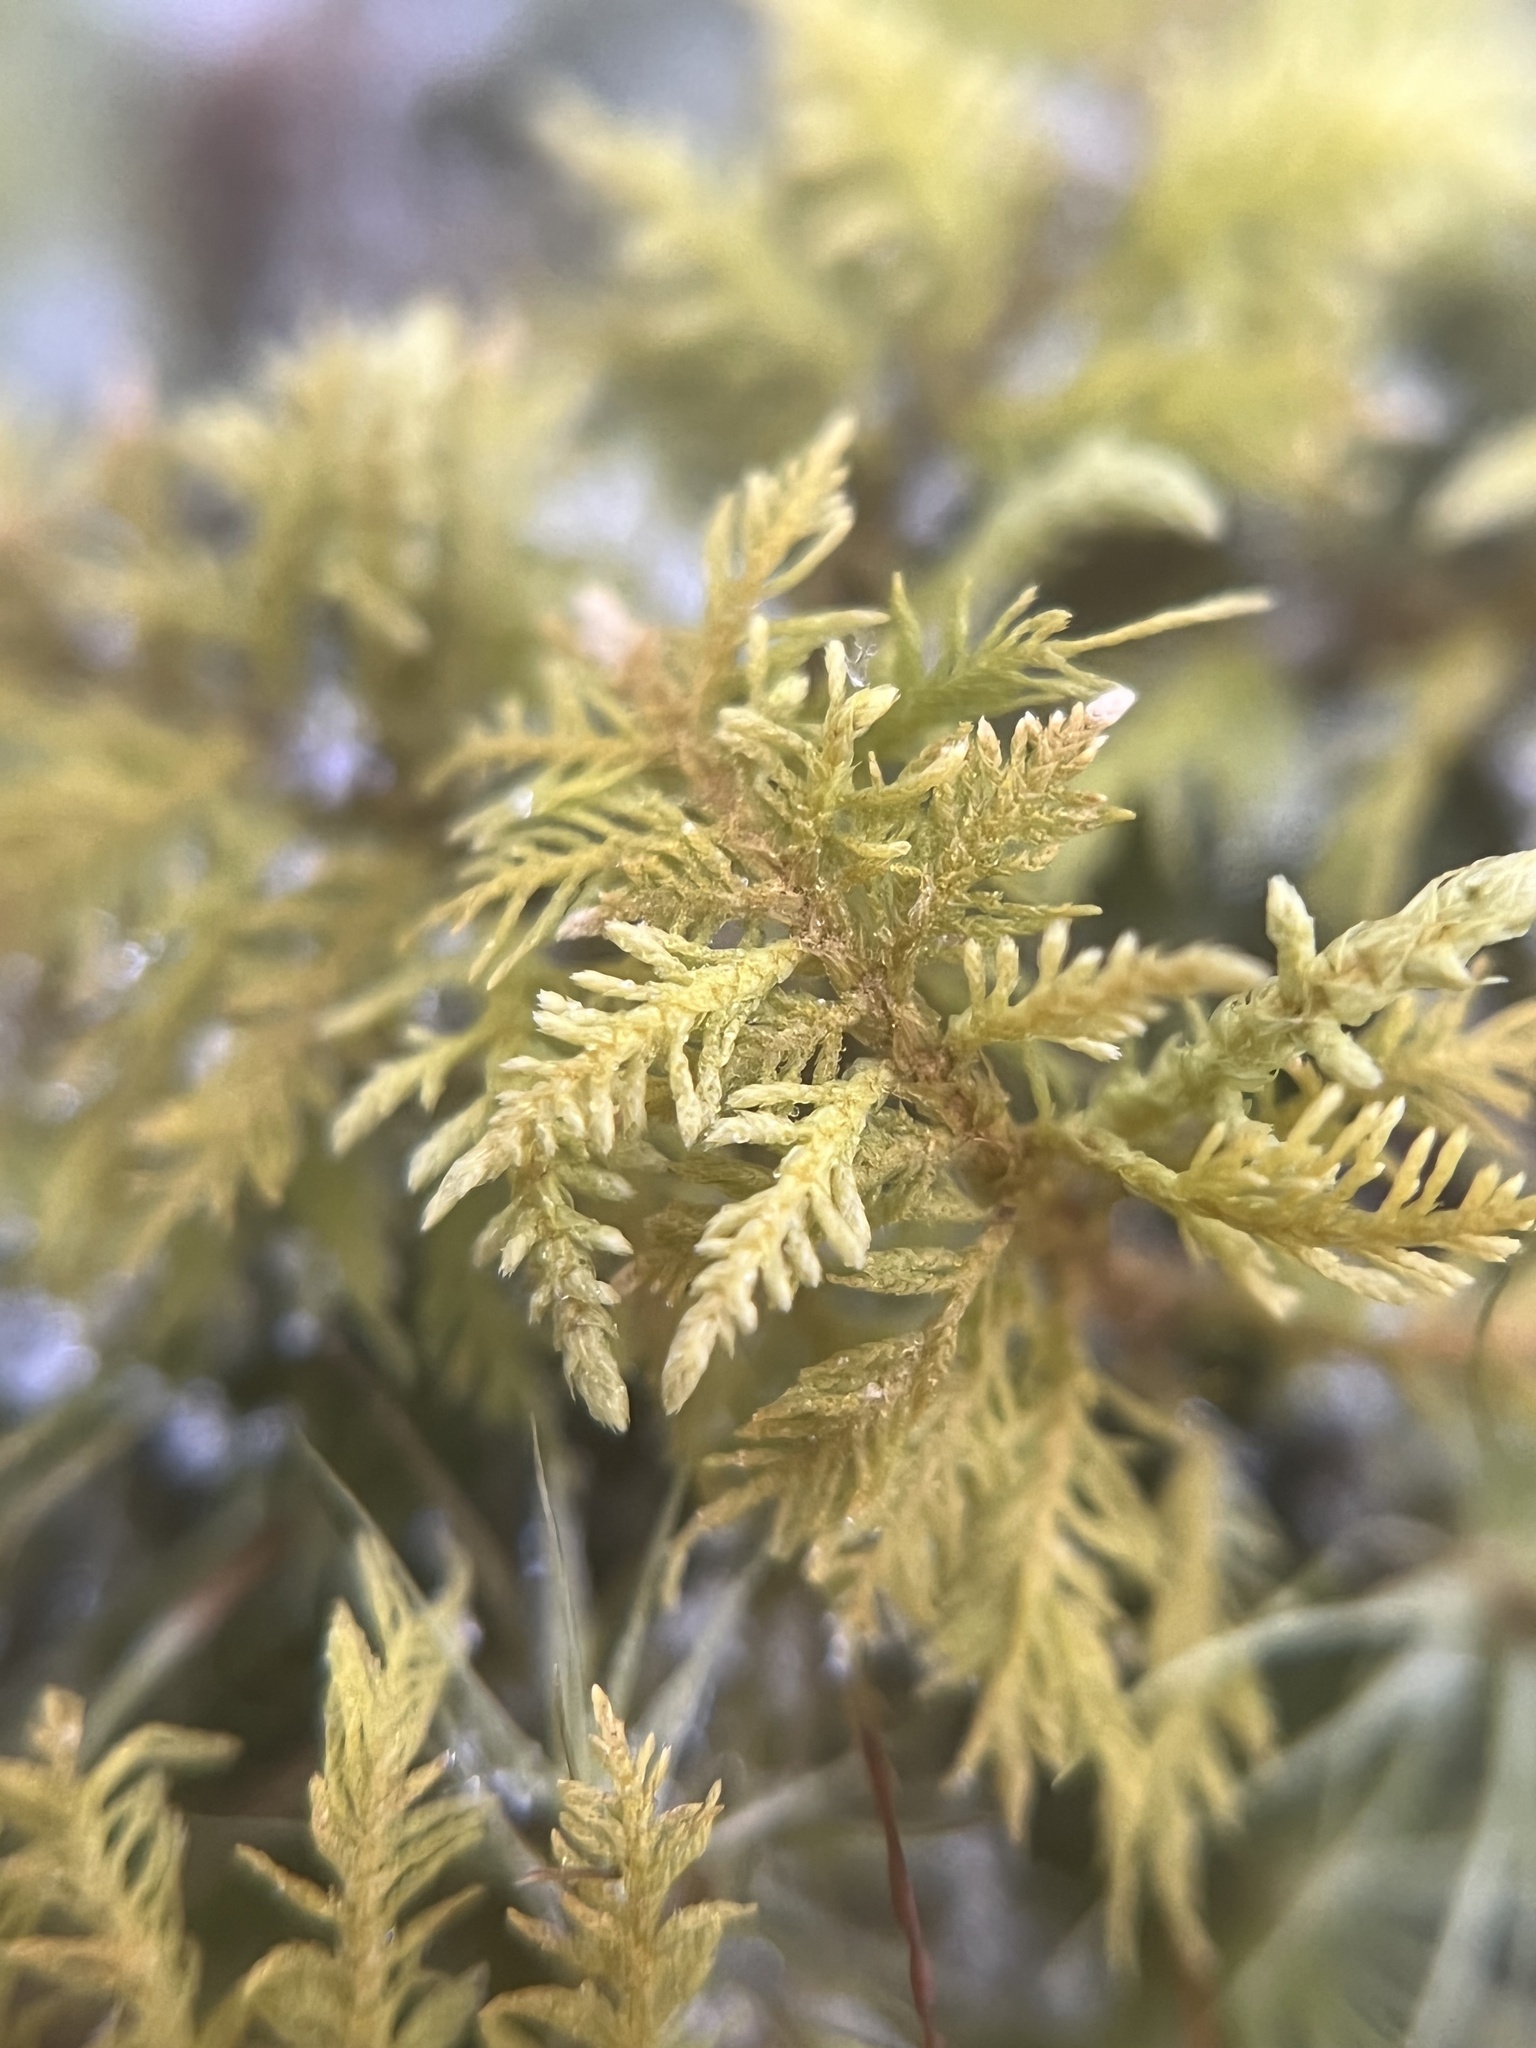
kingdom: Plantae
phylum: Bryophyta
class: Bryopsida
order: Hypnales
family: Thuidiaceae
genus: Thuidium
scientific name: Thuidium delicatulum
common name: Delicate fern moss
